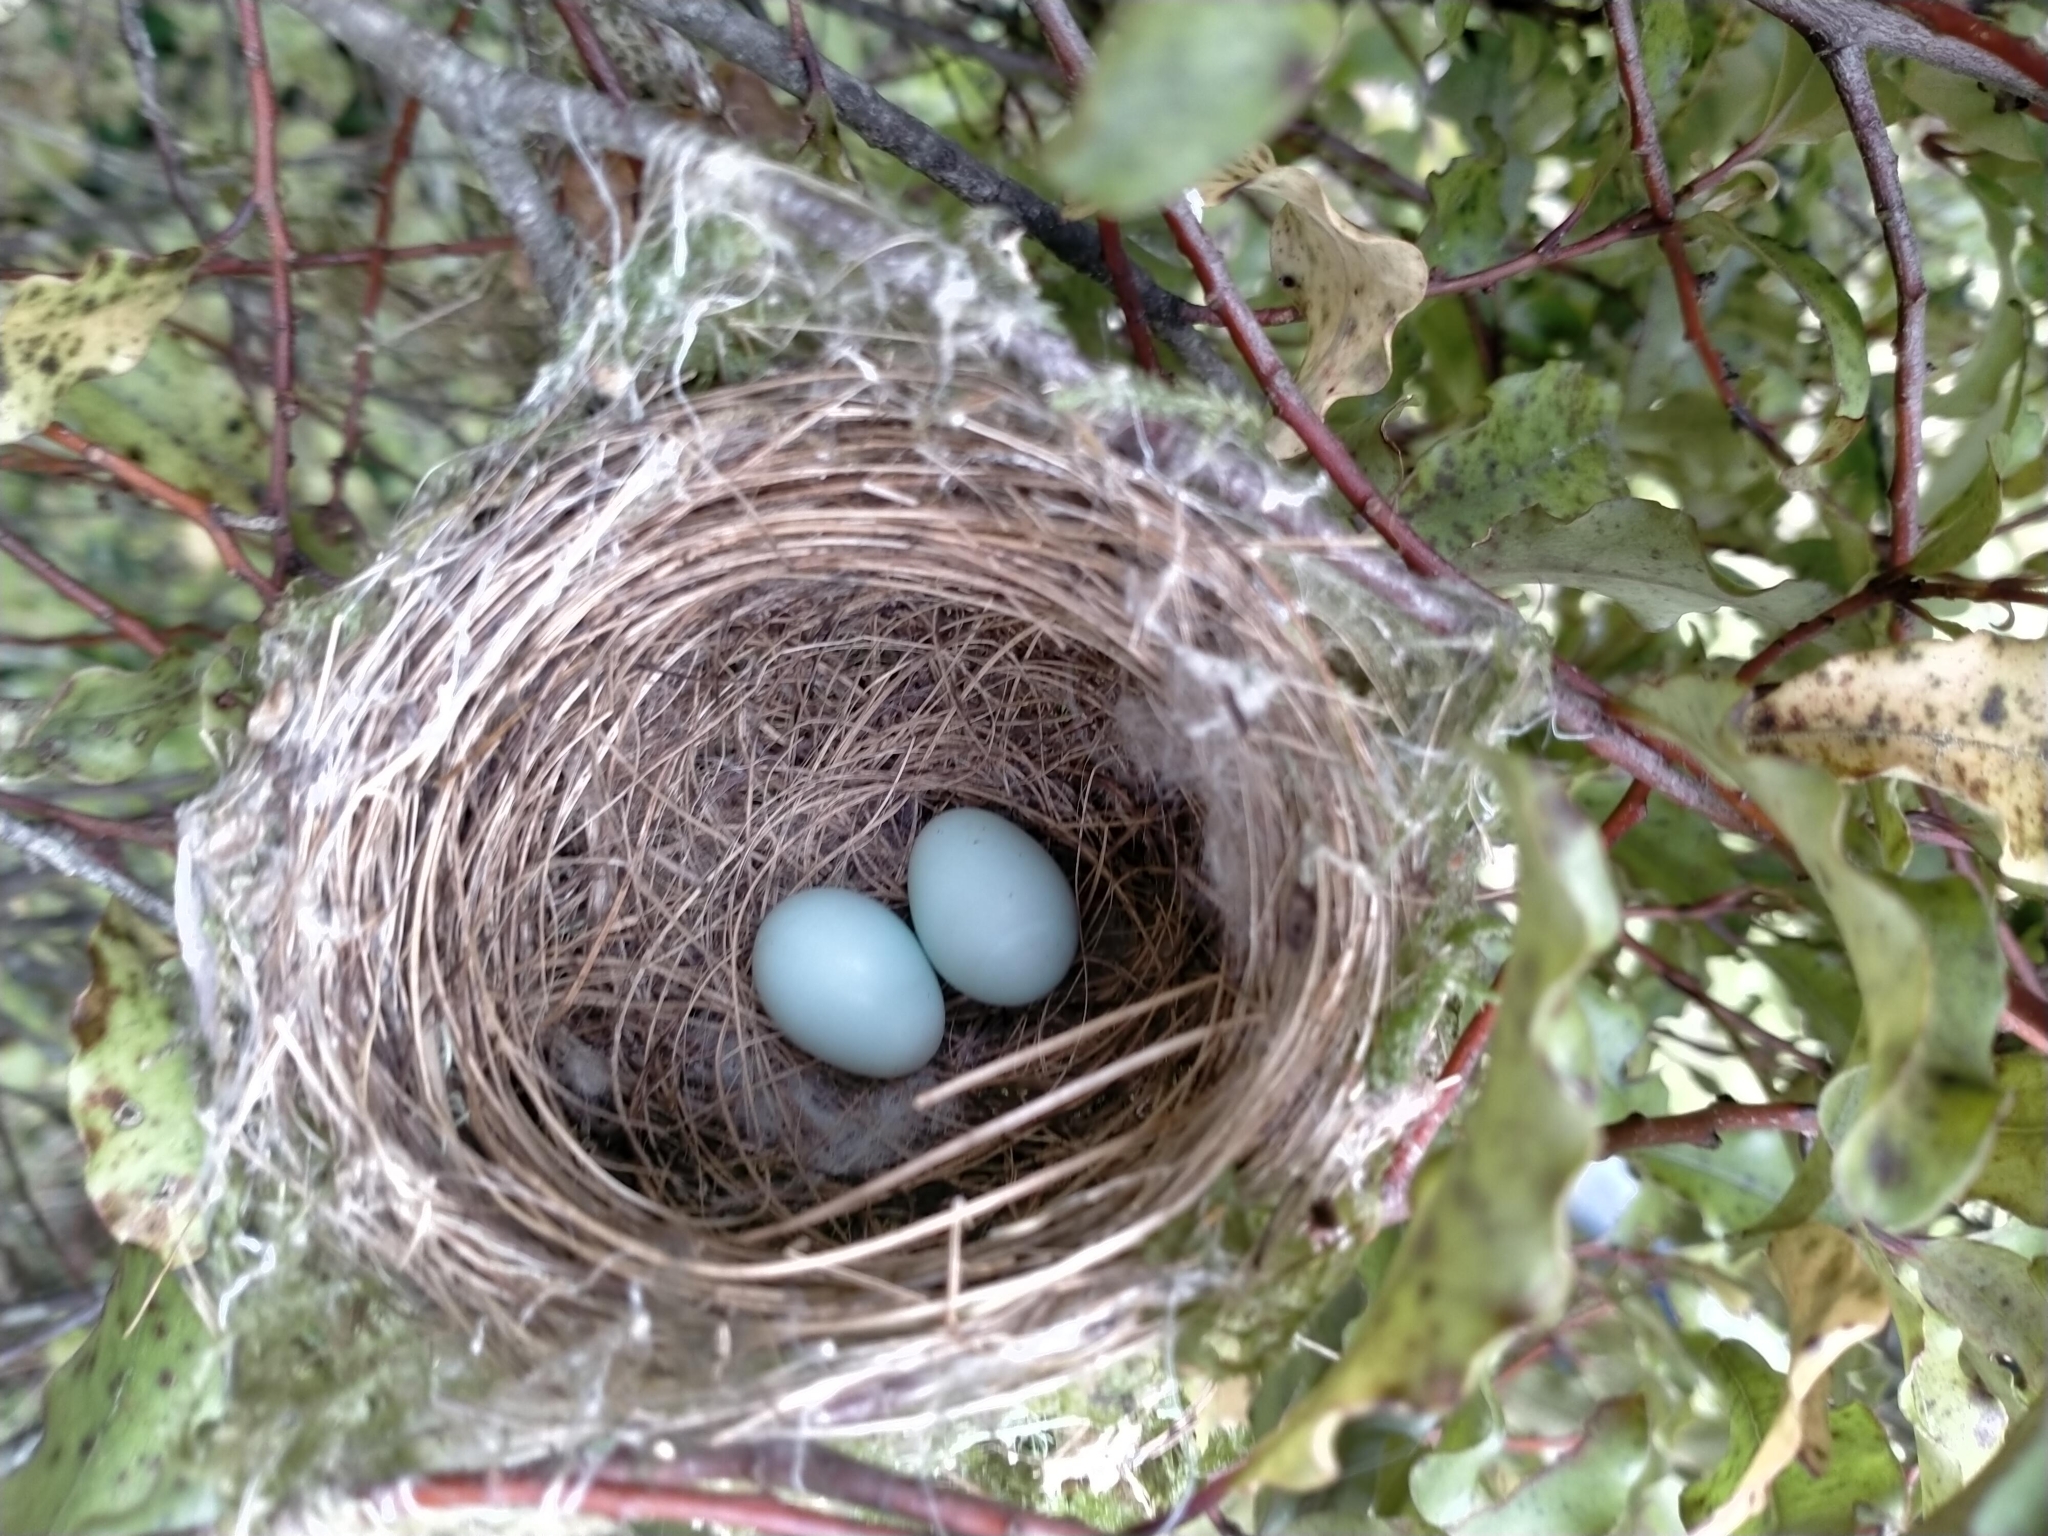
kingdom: Animalia
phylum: Chordata
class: Aves
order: Passeriformes
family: Zosteropidae
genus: Zosterops
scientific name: Zosterops lateralis
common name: Silvereye
